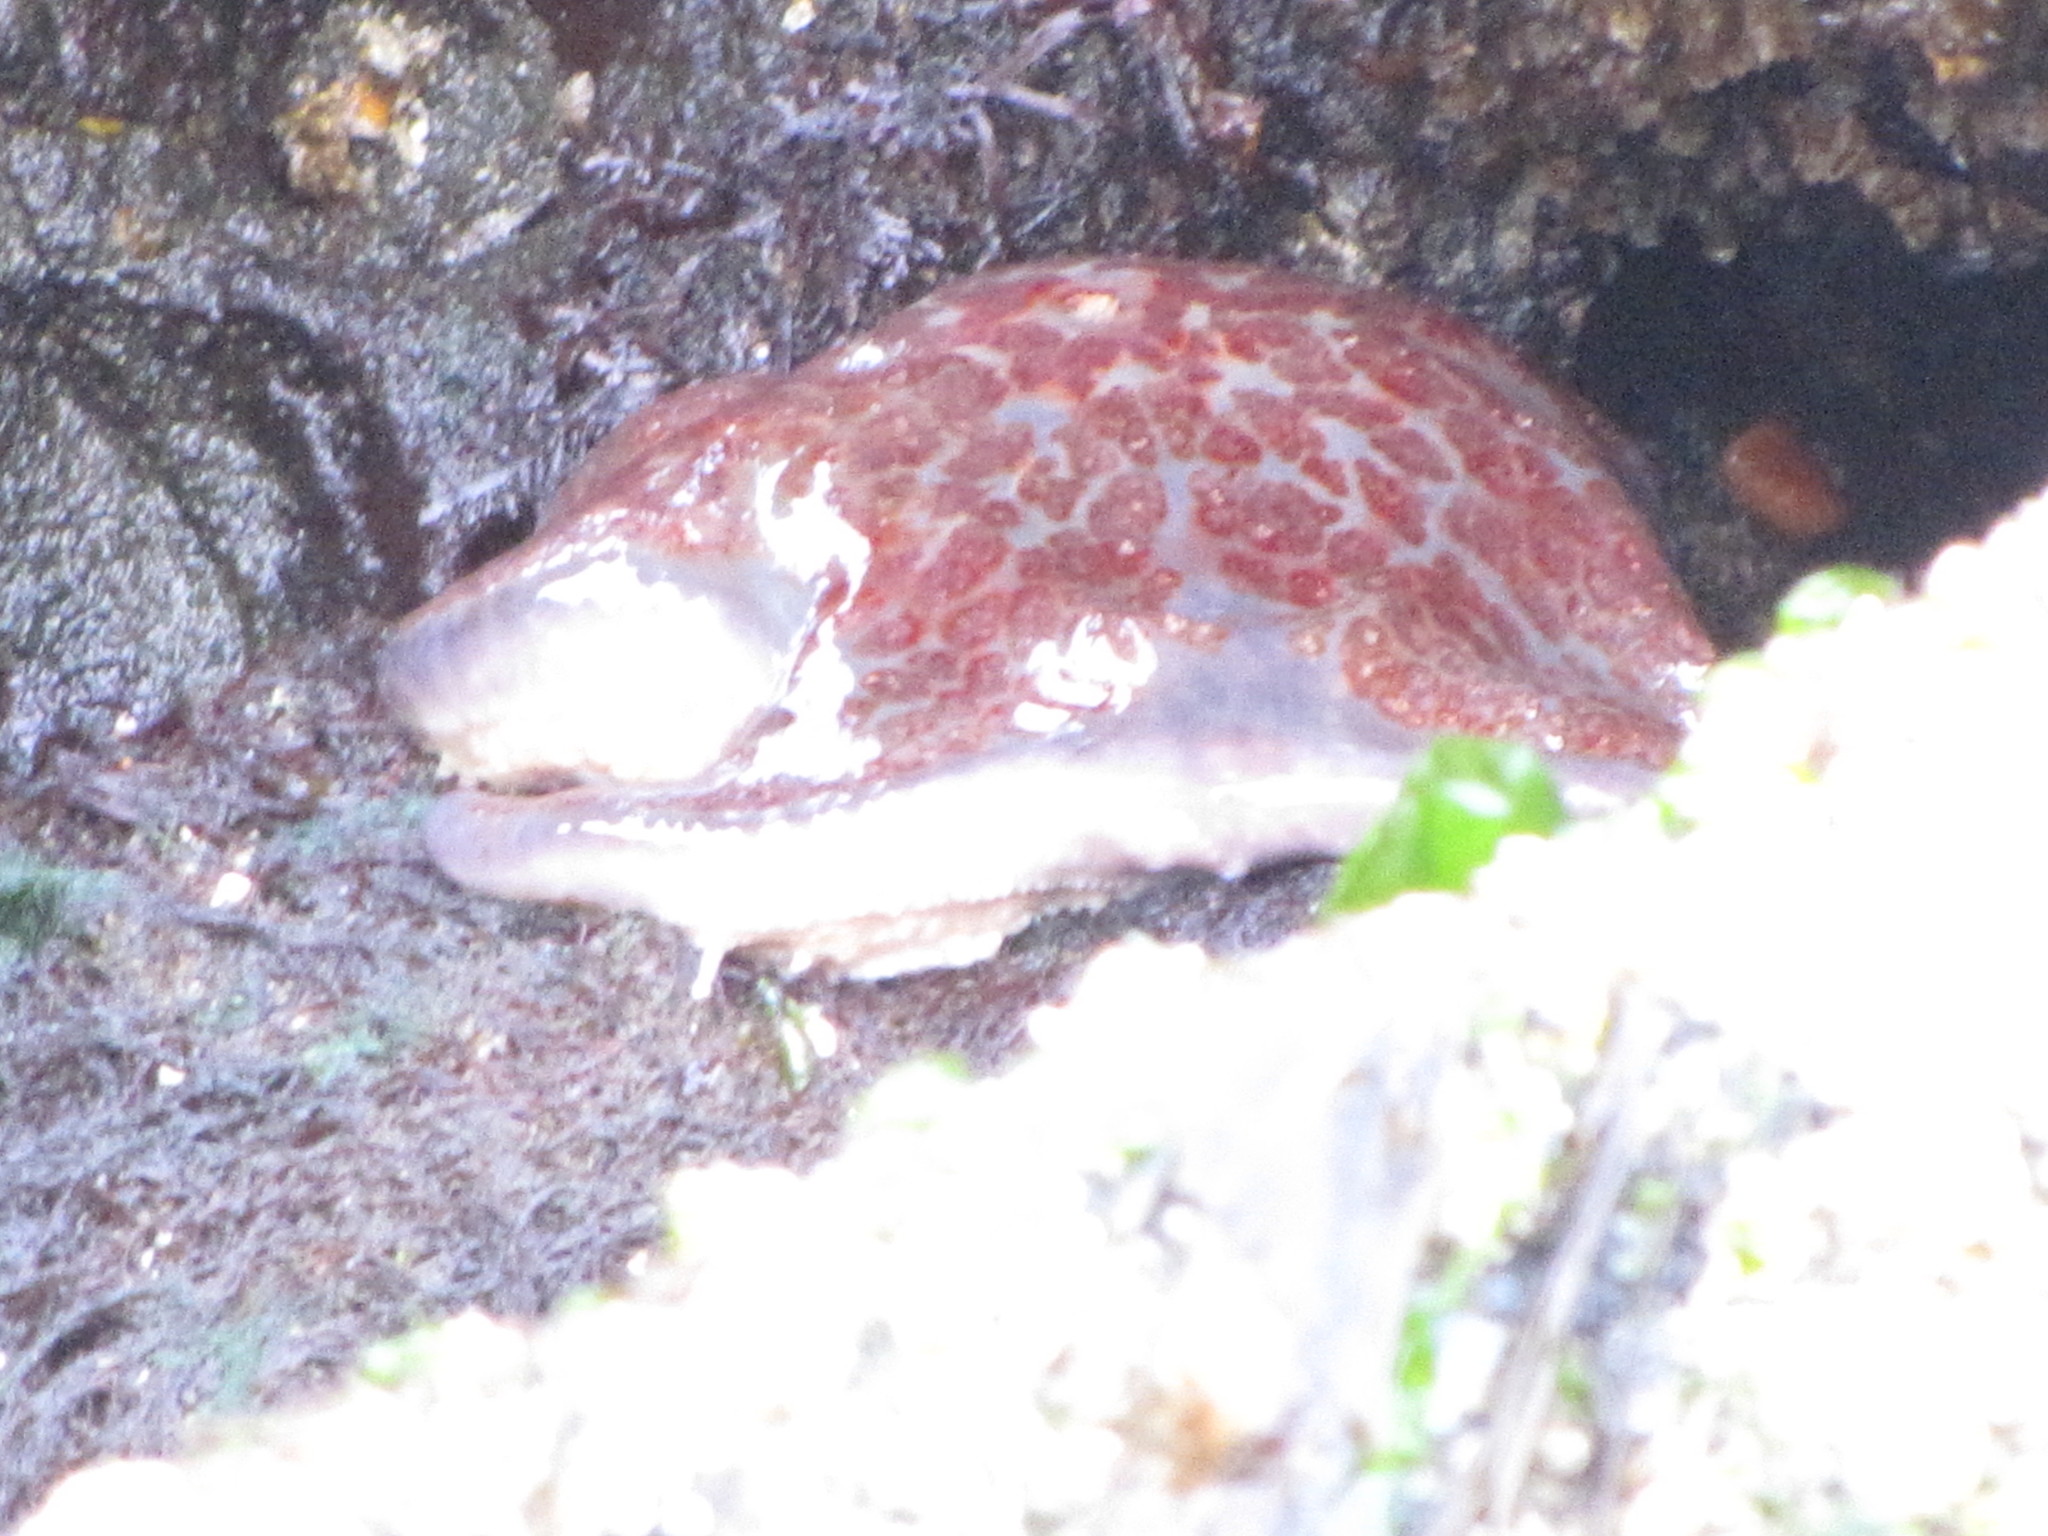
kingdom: Animalia
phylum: Echinodermata
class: Asteroidea
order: Valvatida
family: Asteropseidae
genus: Dermasterias
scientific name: Dermasterias imbricata
